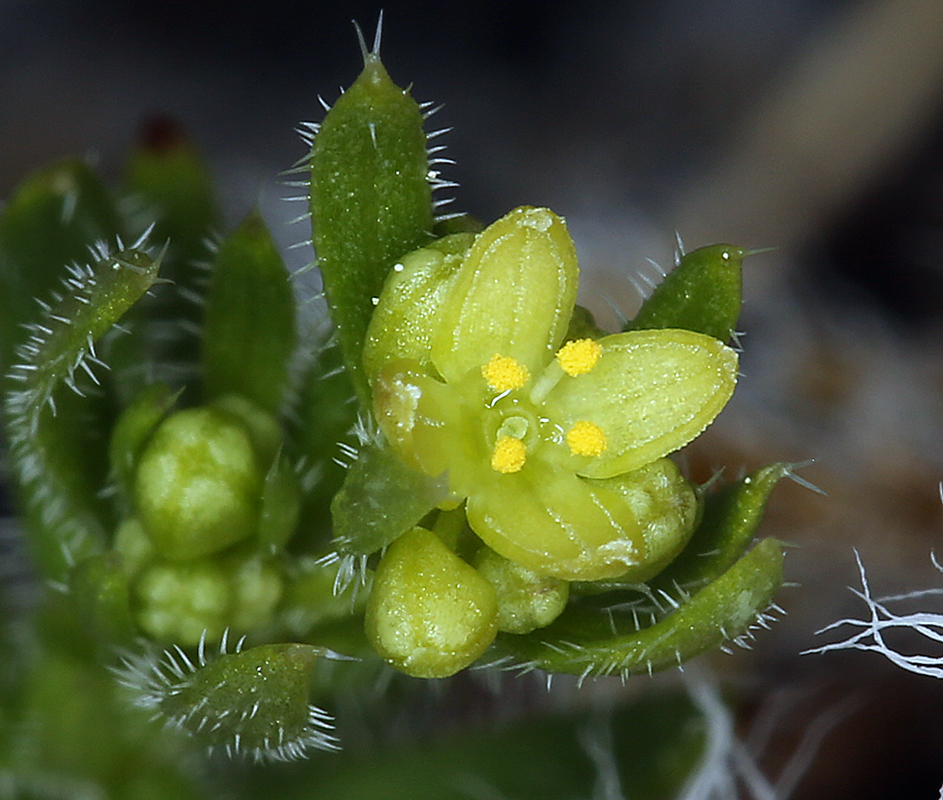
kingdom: Plantae
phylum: Tracheophyta
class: Magnoliopsida
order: Gentianales
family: Rubiaceae
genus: Galium
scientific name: Galium stebbinsii
